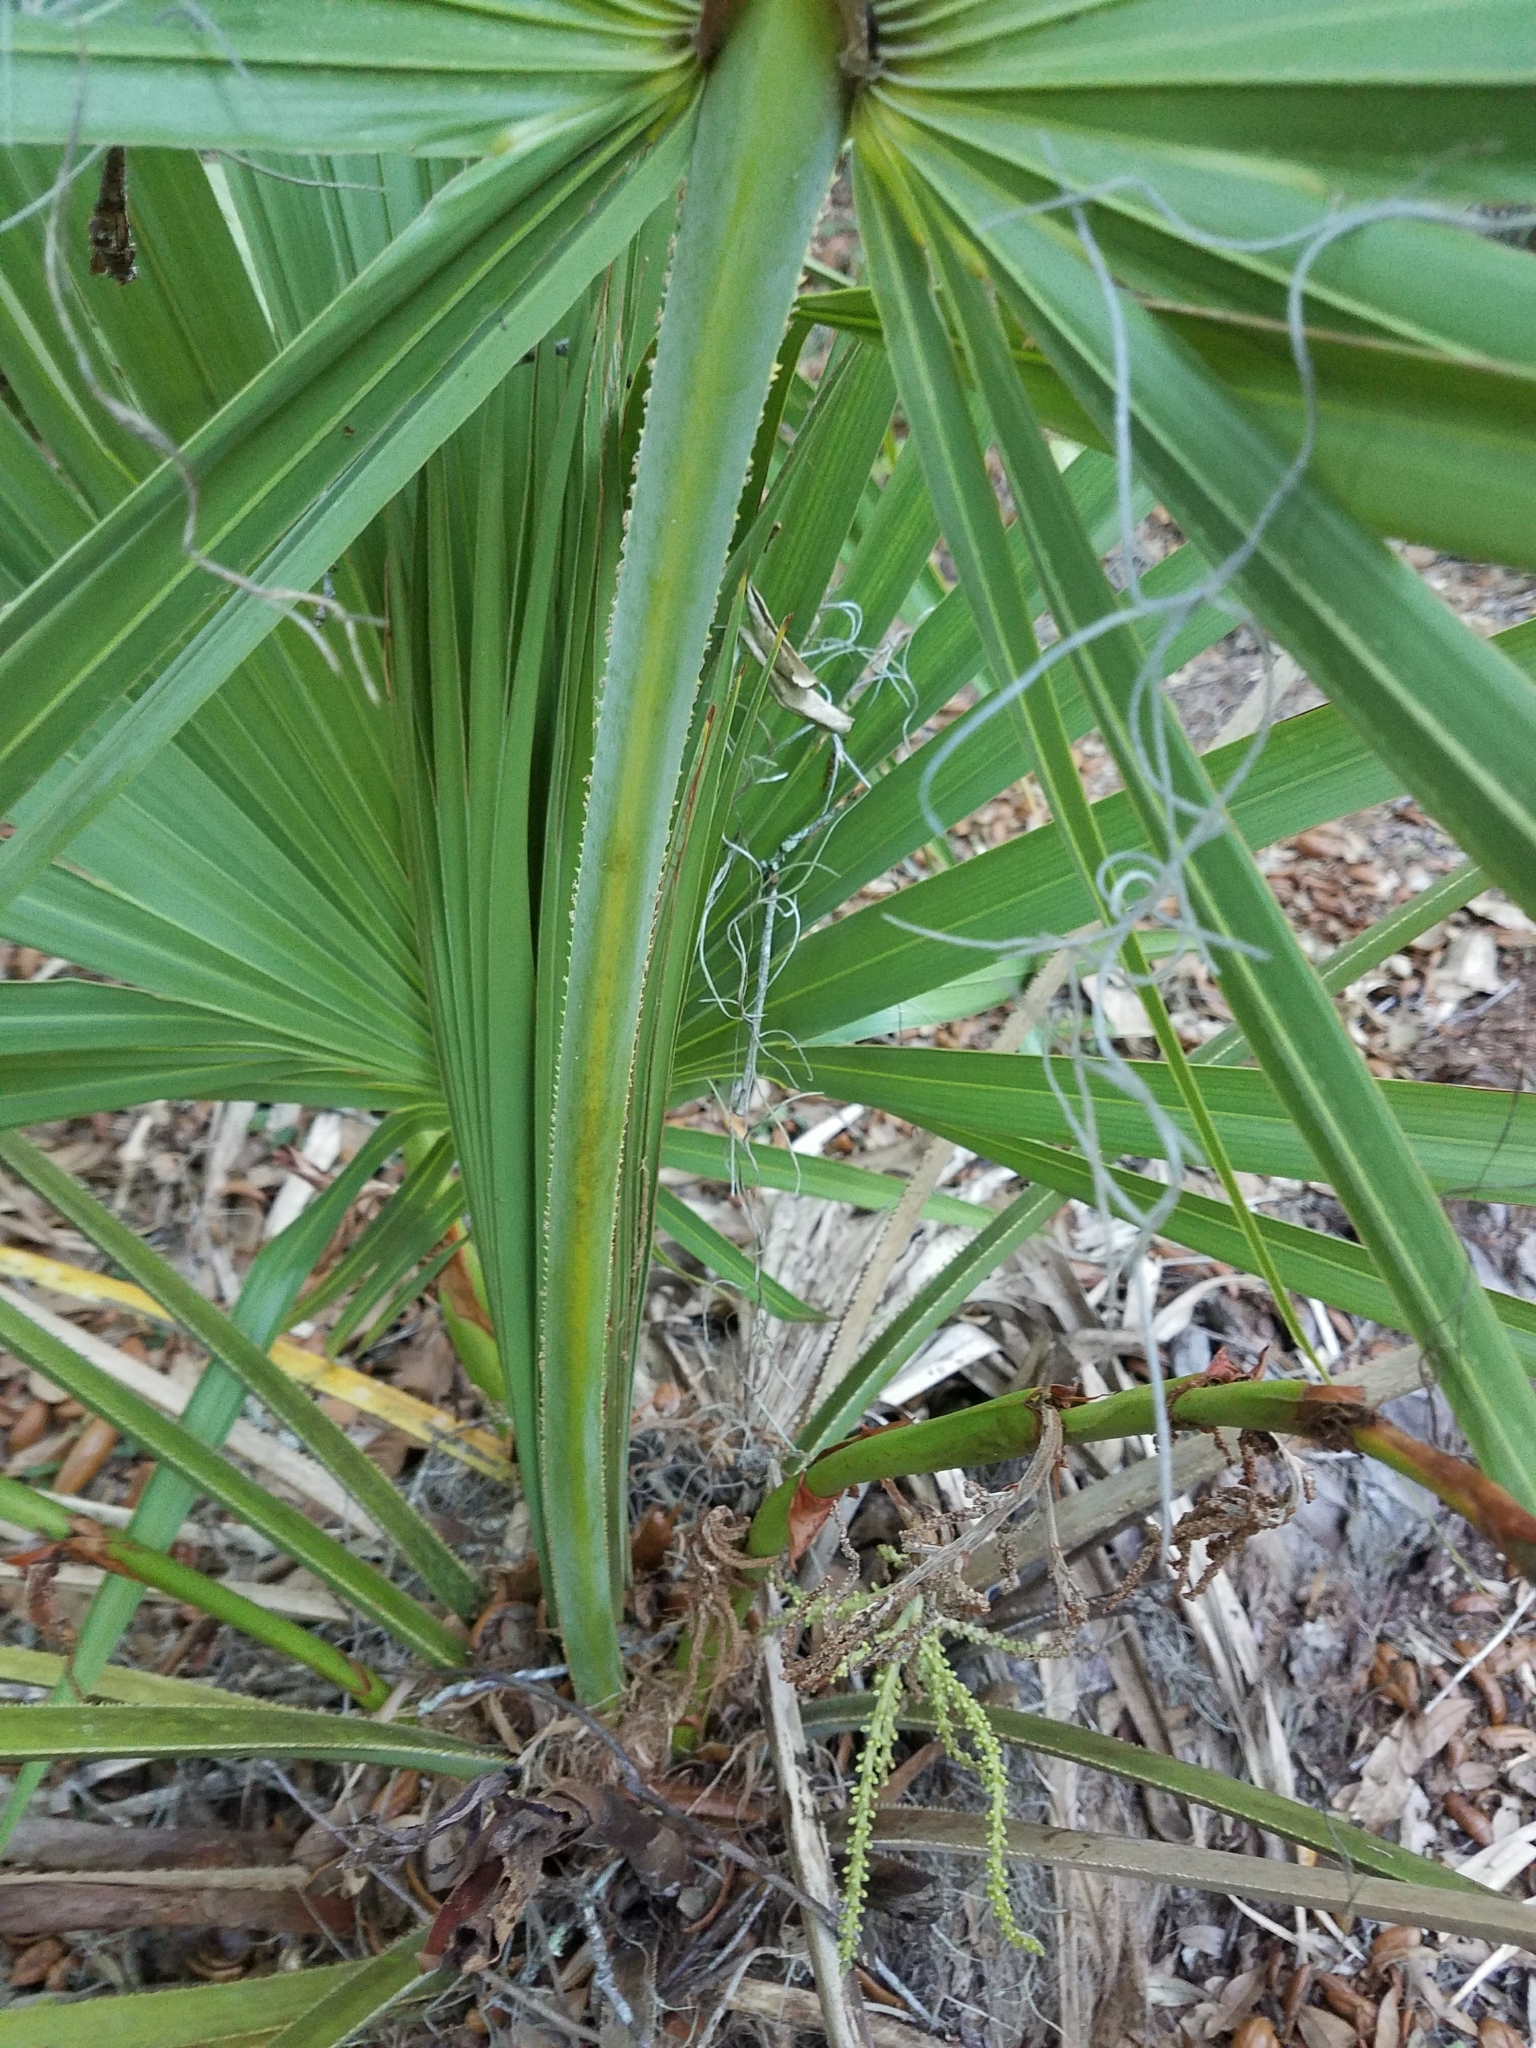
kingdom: Plantae
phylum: Tracheophyta
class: Liliopsida
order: Arecales
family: Arecaceae
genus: Serenoa
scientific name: Serenoa repens
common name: Saw-palmetto
